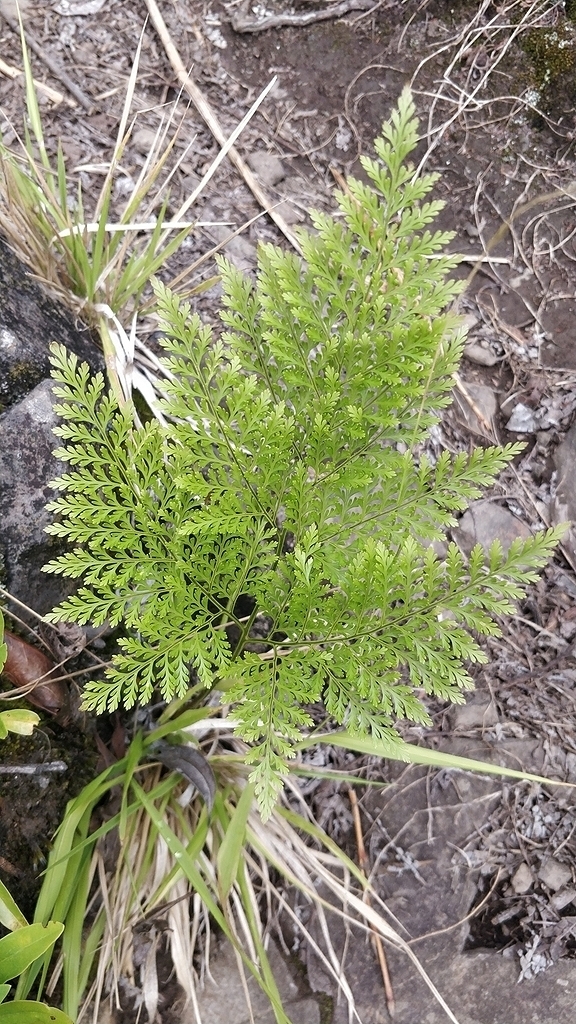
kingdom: Plantae
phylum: Tracheophyta
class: Polypodiopsida
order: Polypodiales
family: Davalliaceae
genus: Davallia
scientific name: Davallia canariensis
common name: Hare's-foot fern
